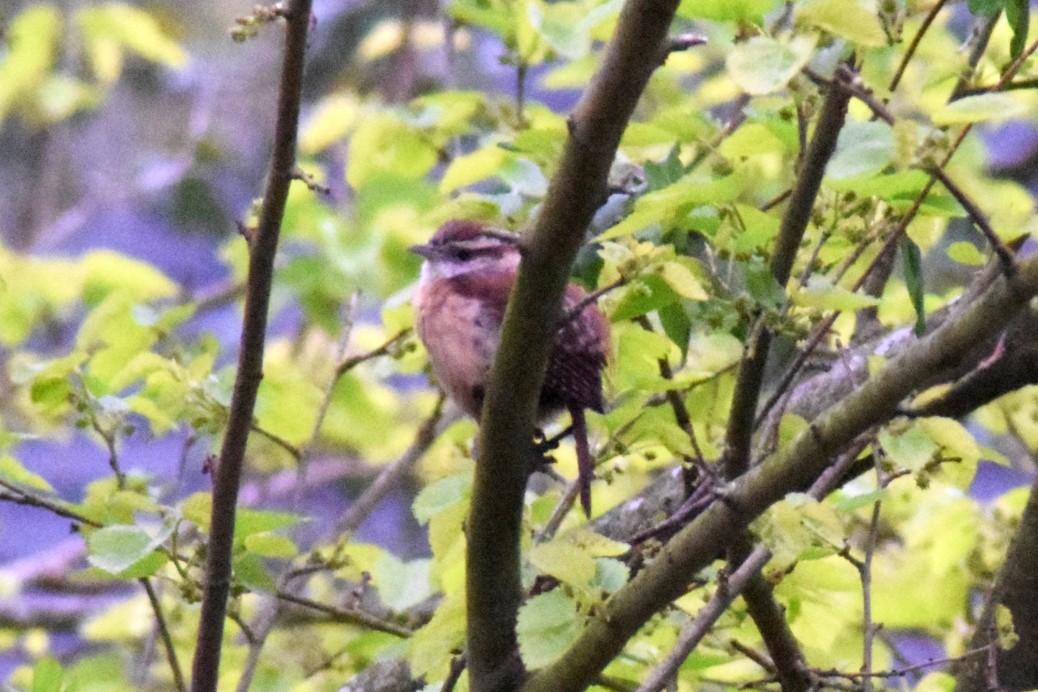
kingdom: Animalia
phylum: Chordata
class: Aves
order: Passeriformes
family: Troglodytidae
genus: Thryothorus
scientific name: Thryothorus ludovicianus
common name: Carolina wren
